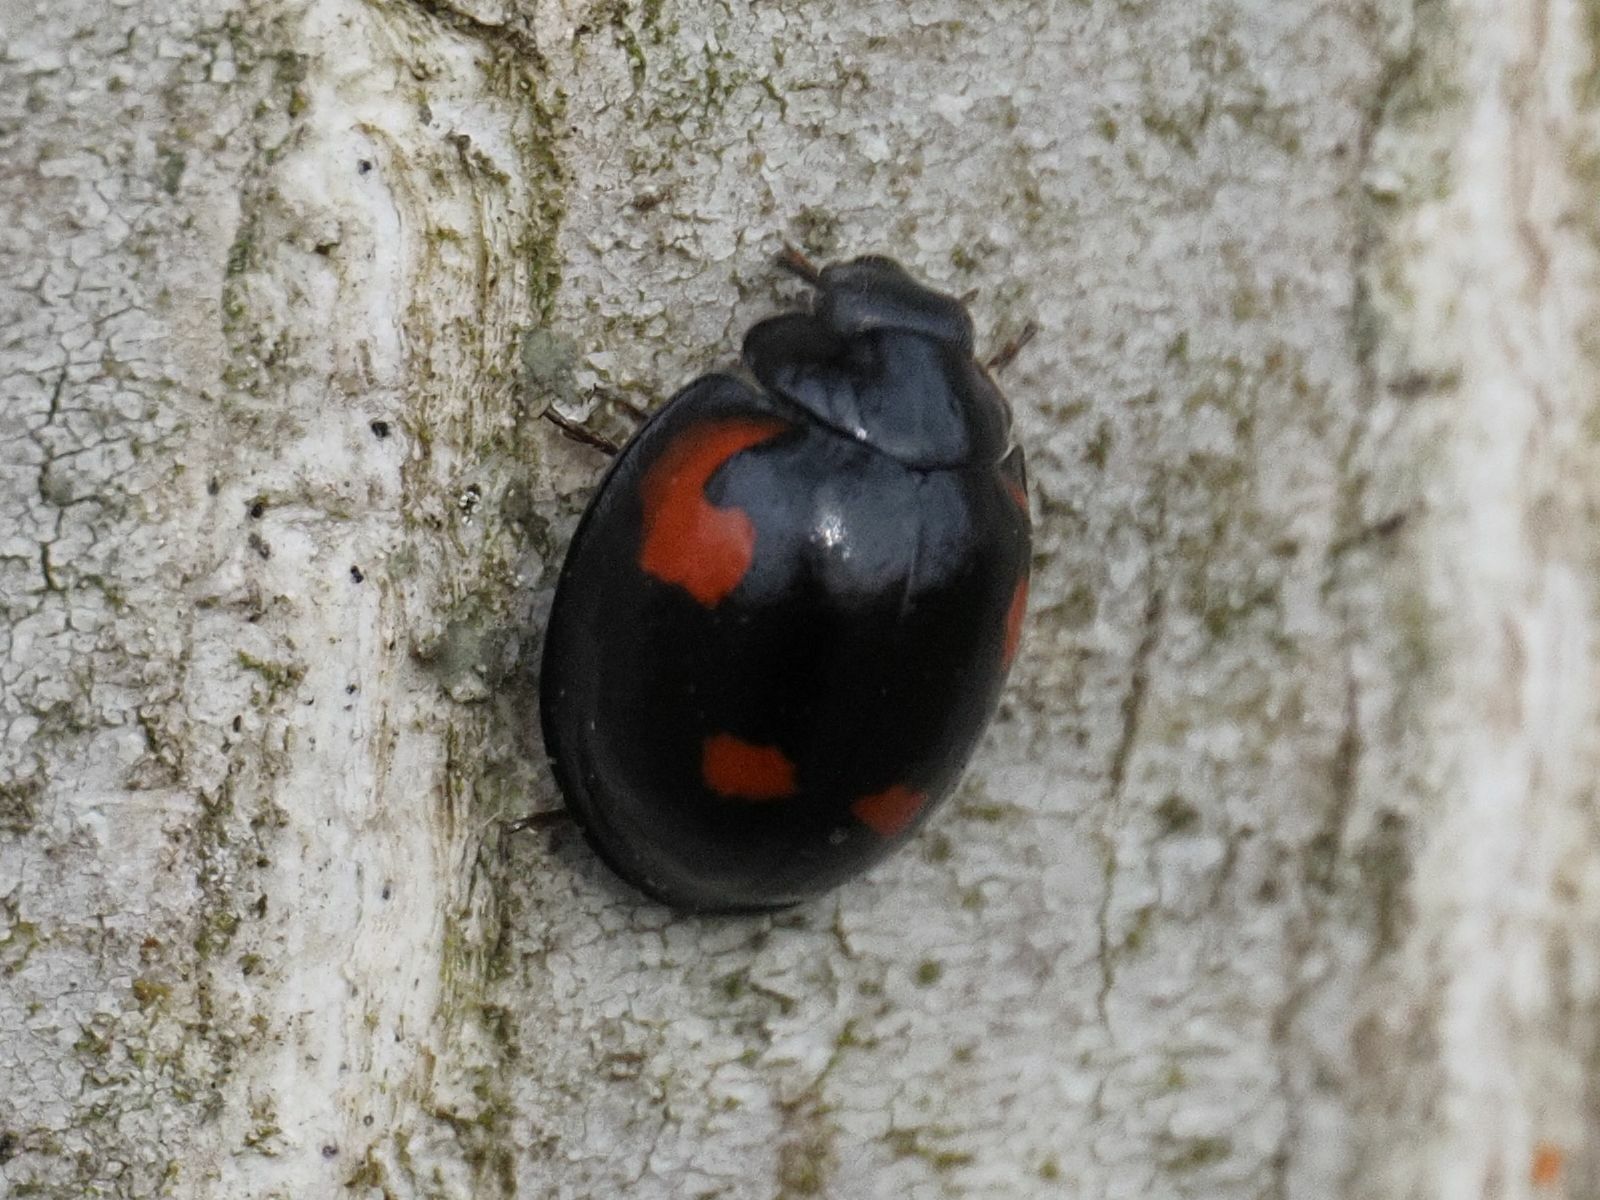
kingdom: Animalia
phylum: Arthropoda
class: Insecta
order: Coleoptera
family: Coccinellidae
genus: Brumus
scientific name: Brumus quadripustulatus
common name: Ladybird beetle
